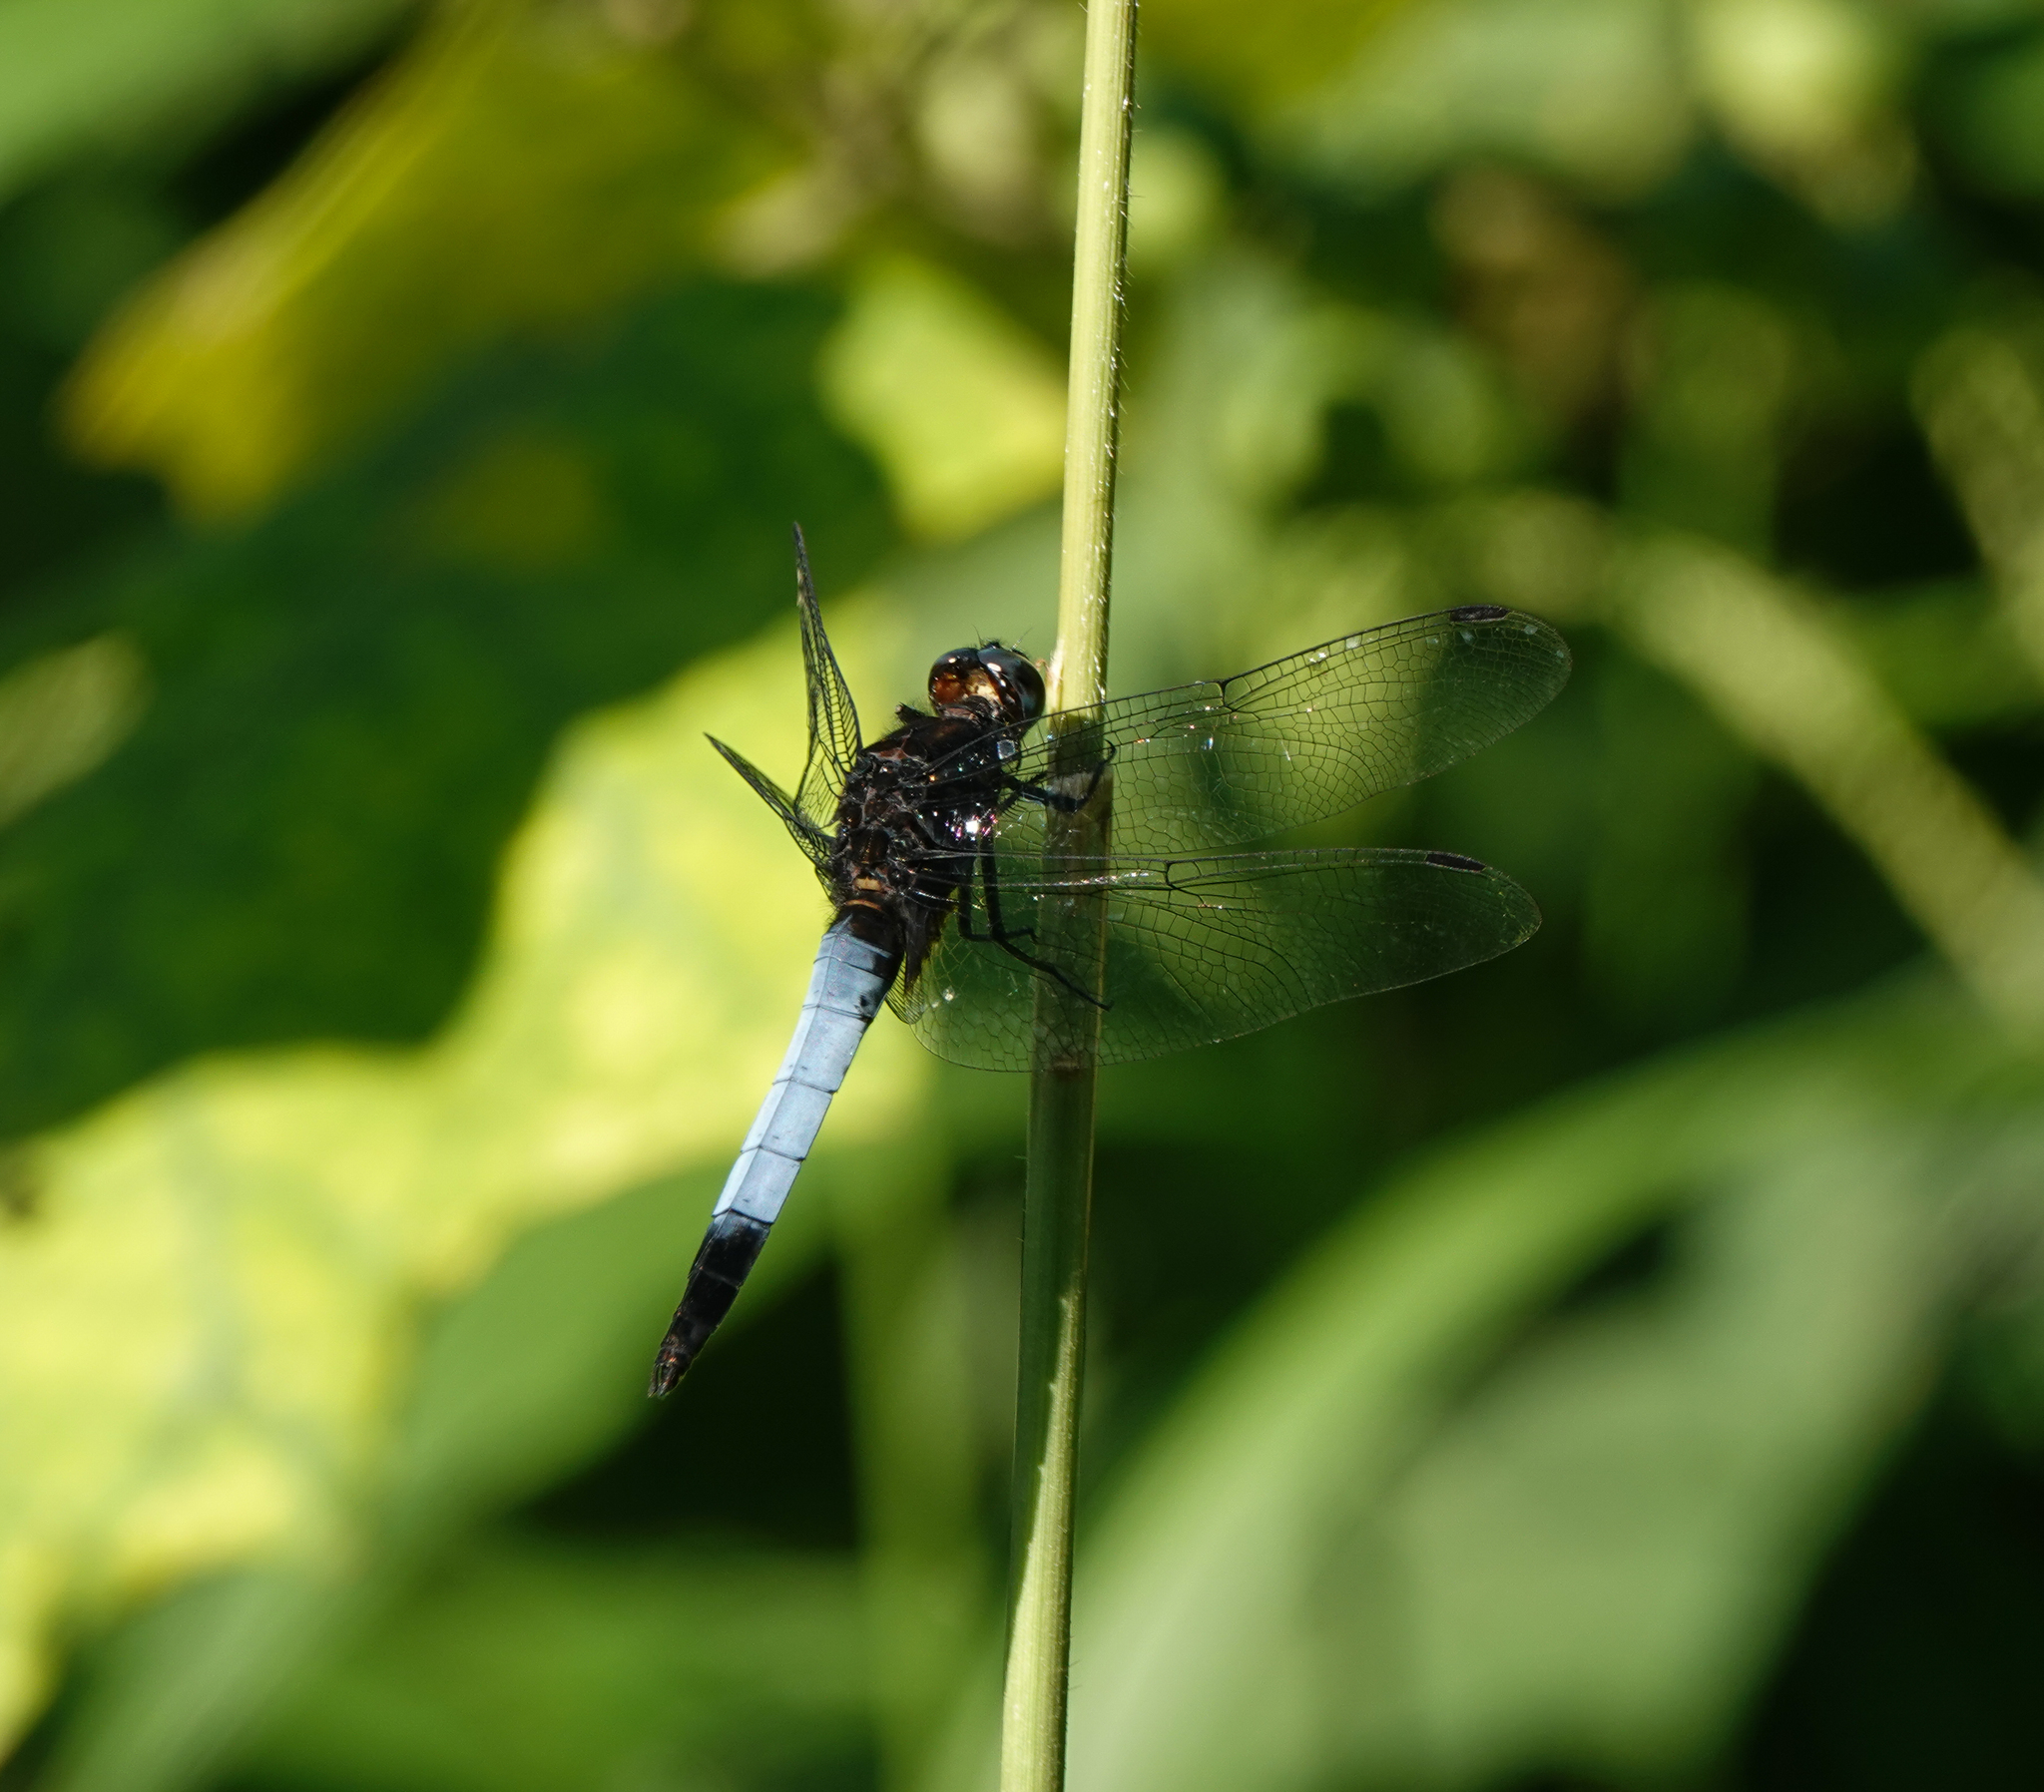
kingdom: Animalia
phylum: Arthropoda
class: Insecta
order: Odonata
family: Libellulidae
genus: Orthetrum
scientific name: Orthetrum triangulare
